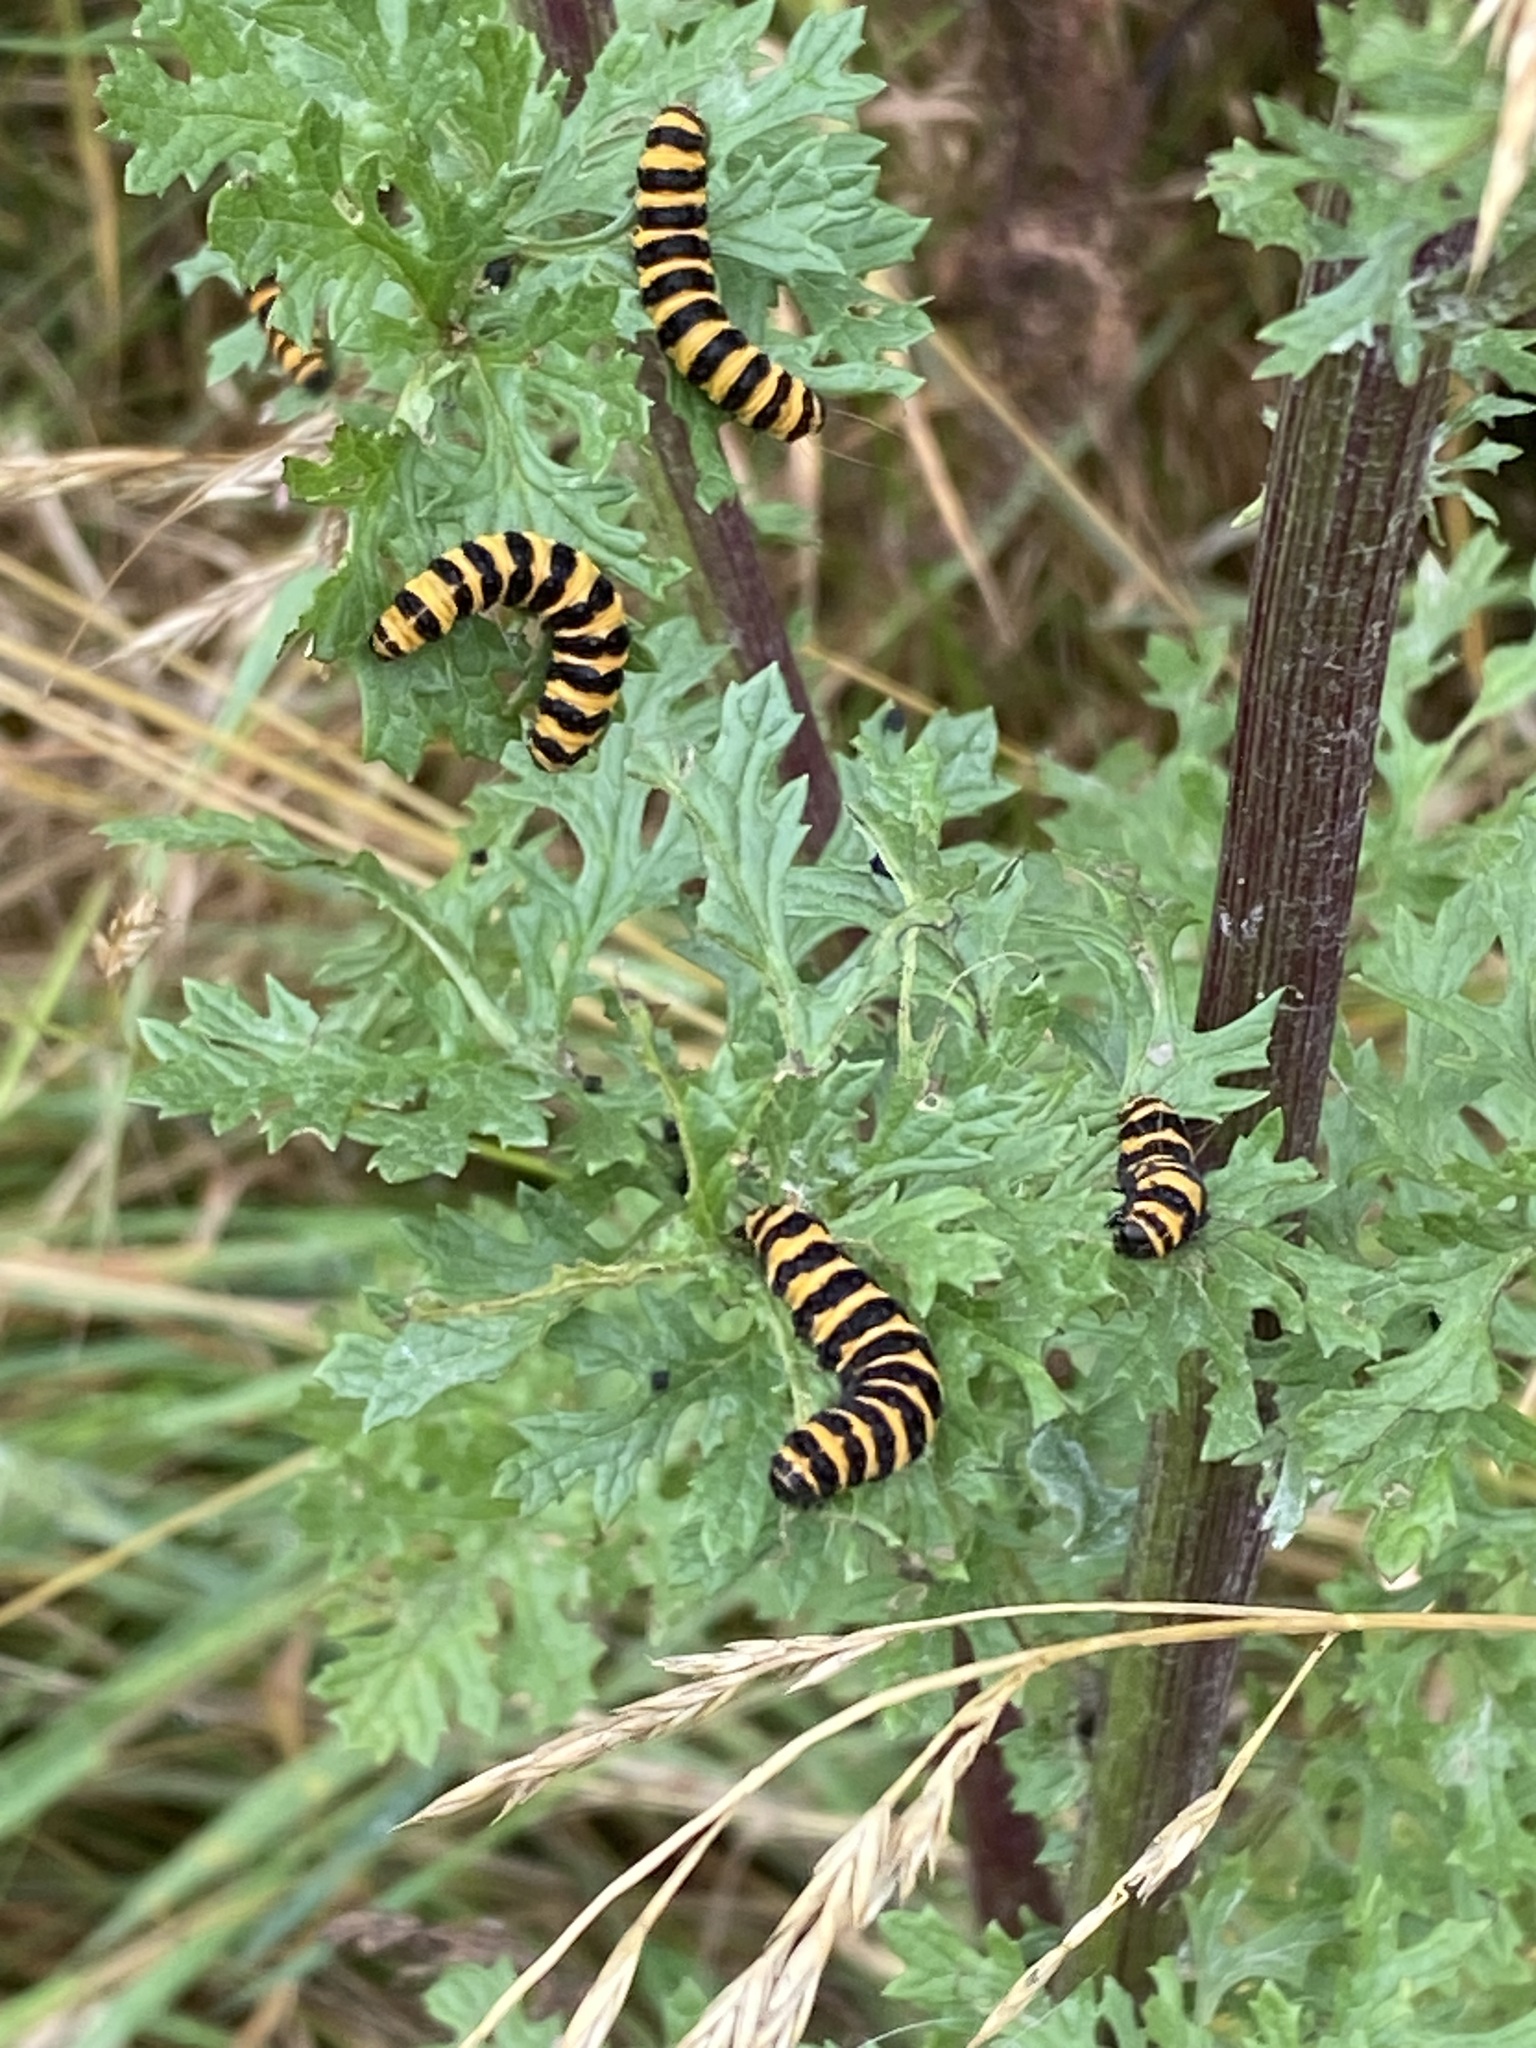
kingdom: Animalia
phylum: Arthropoda
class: Insecta
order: Lepidoptera
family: Erebidae
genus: Tyria
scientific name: Tyria jacobaeae
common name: Cinnabar
